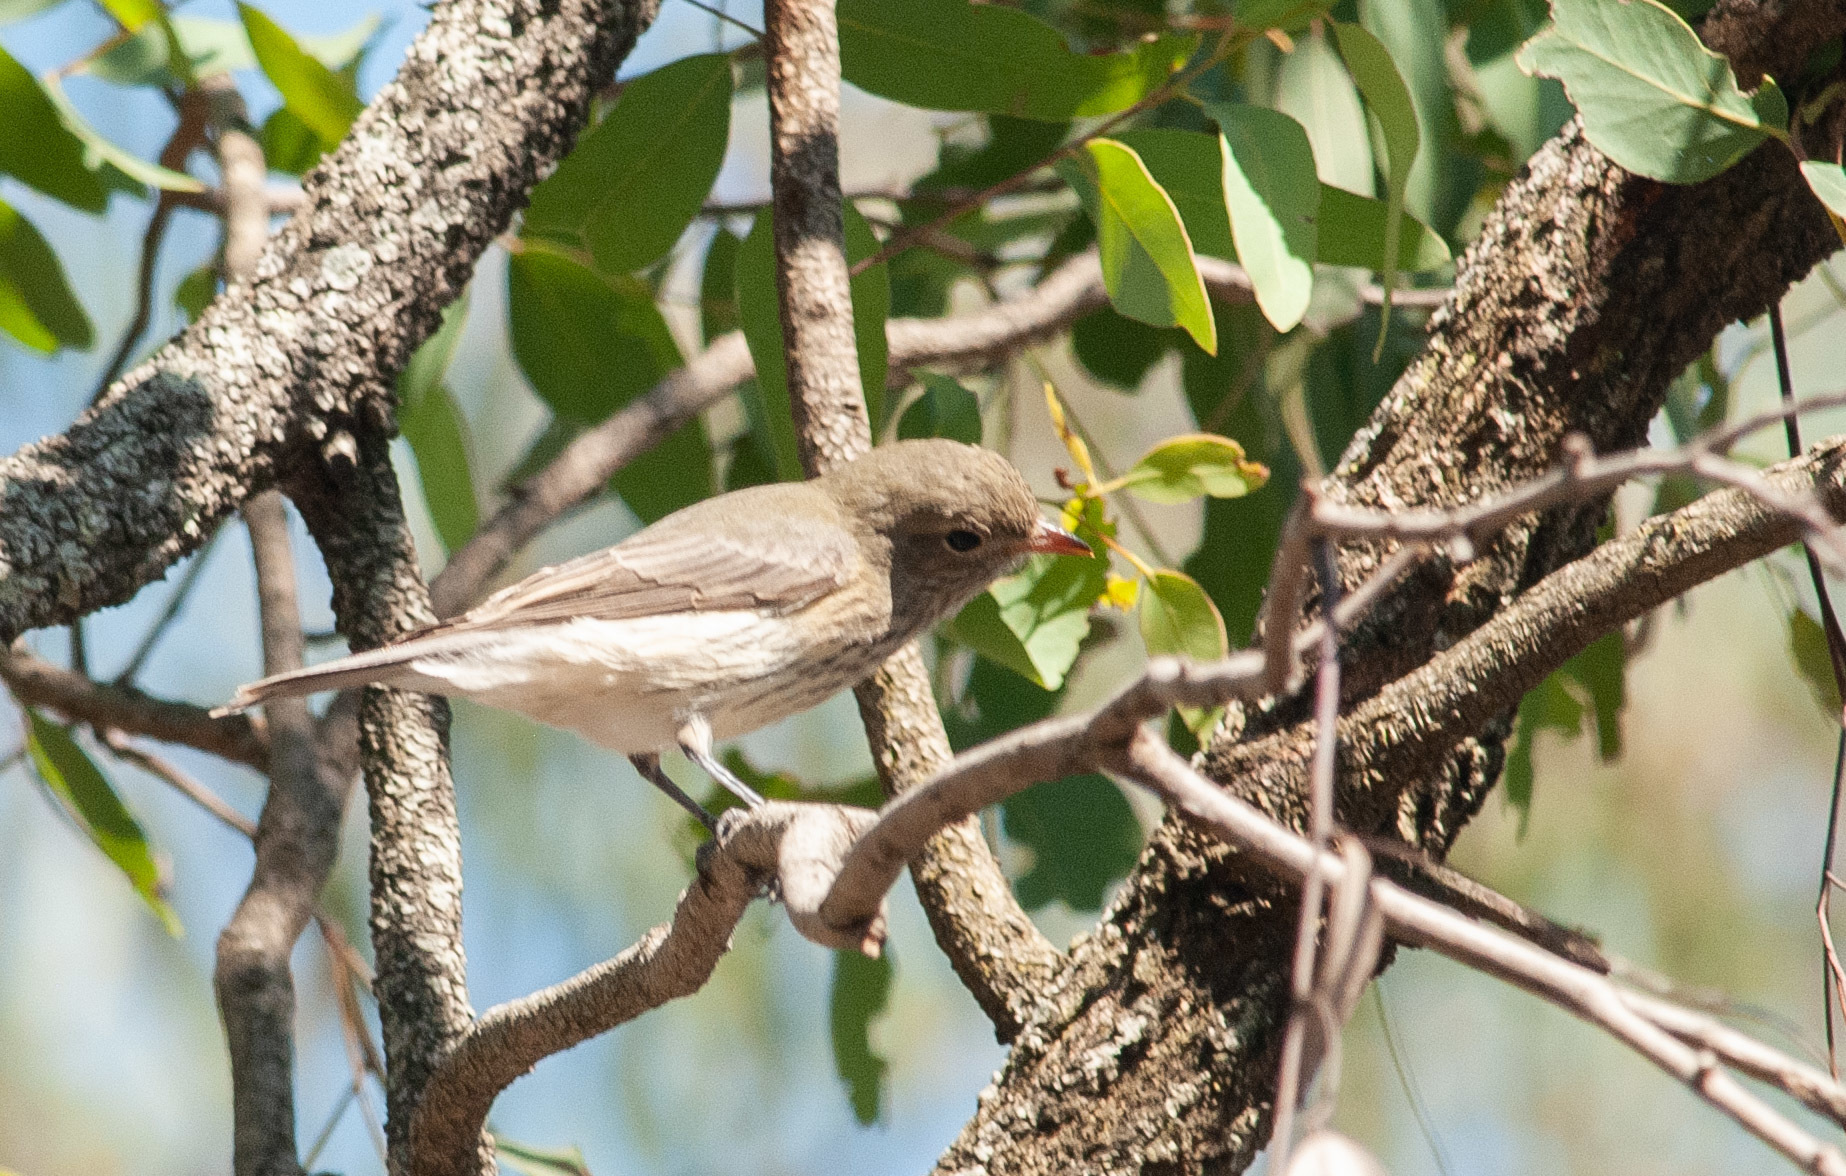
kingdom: Animalia
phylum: Chordata
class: Aves
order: Passeriformes
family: Pachycephalidae
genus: Pachycephala
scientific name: Pachycephala rufiventris
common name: Rufous whistler
